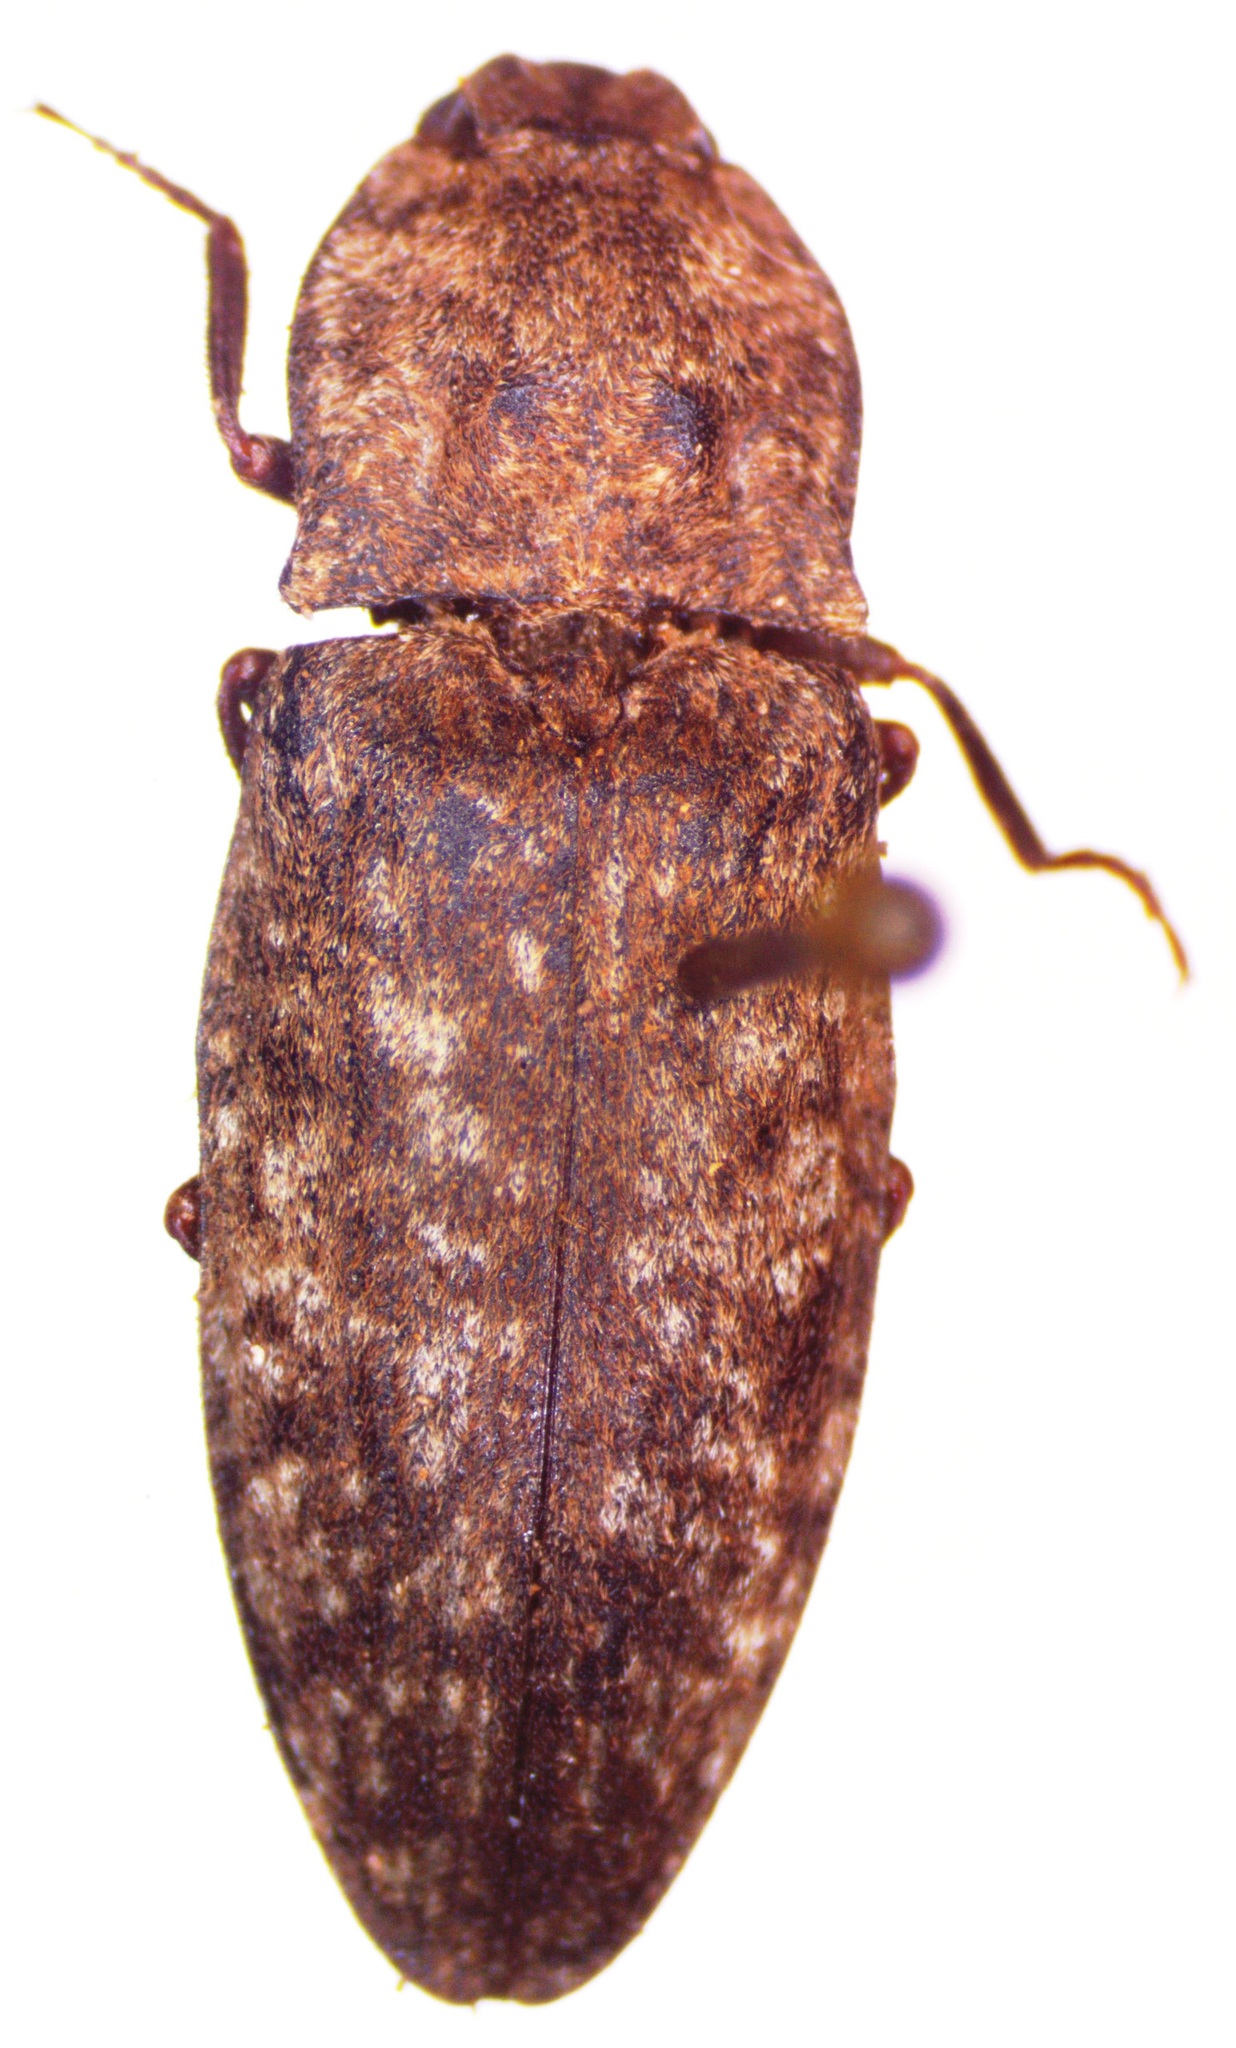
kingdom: Animalia
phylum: Arthropoda
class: Insecta
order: Coleoptera
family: Elateridae
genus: Agrypnus
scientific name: Agrypnus murinus
